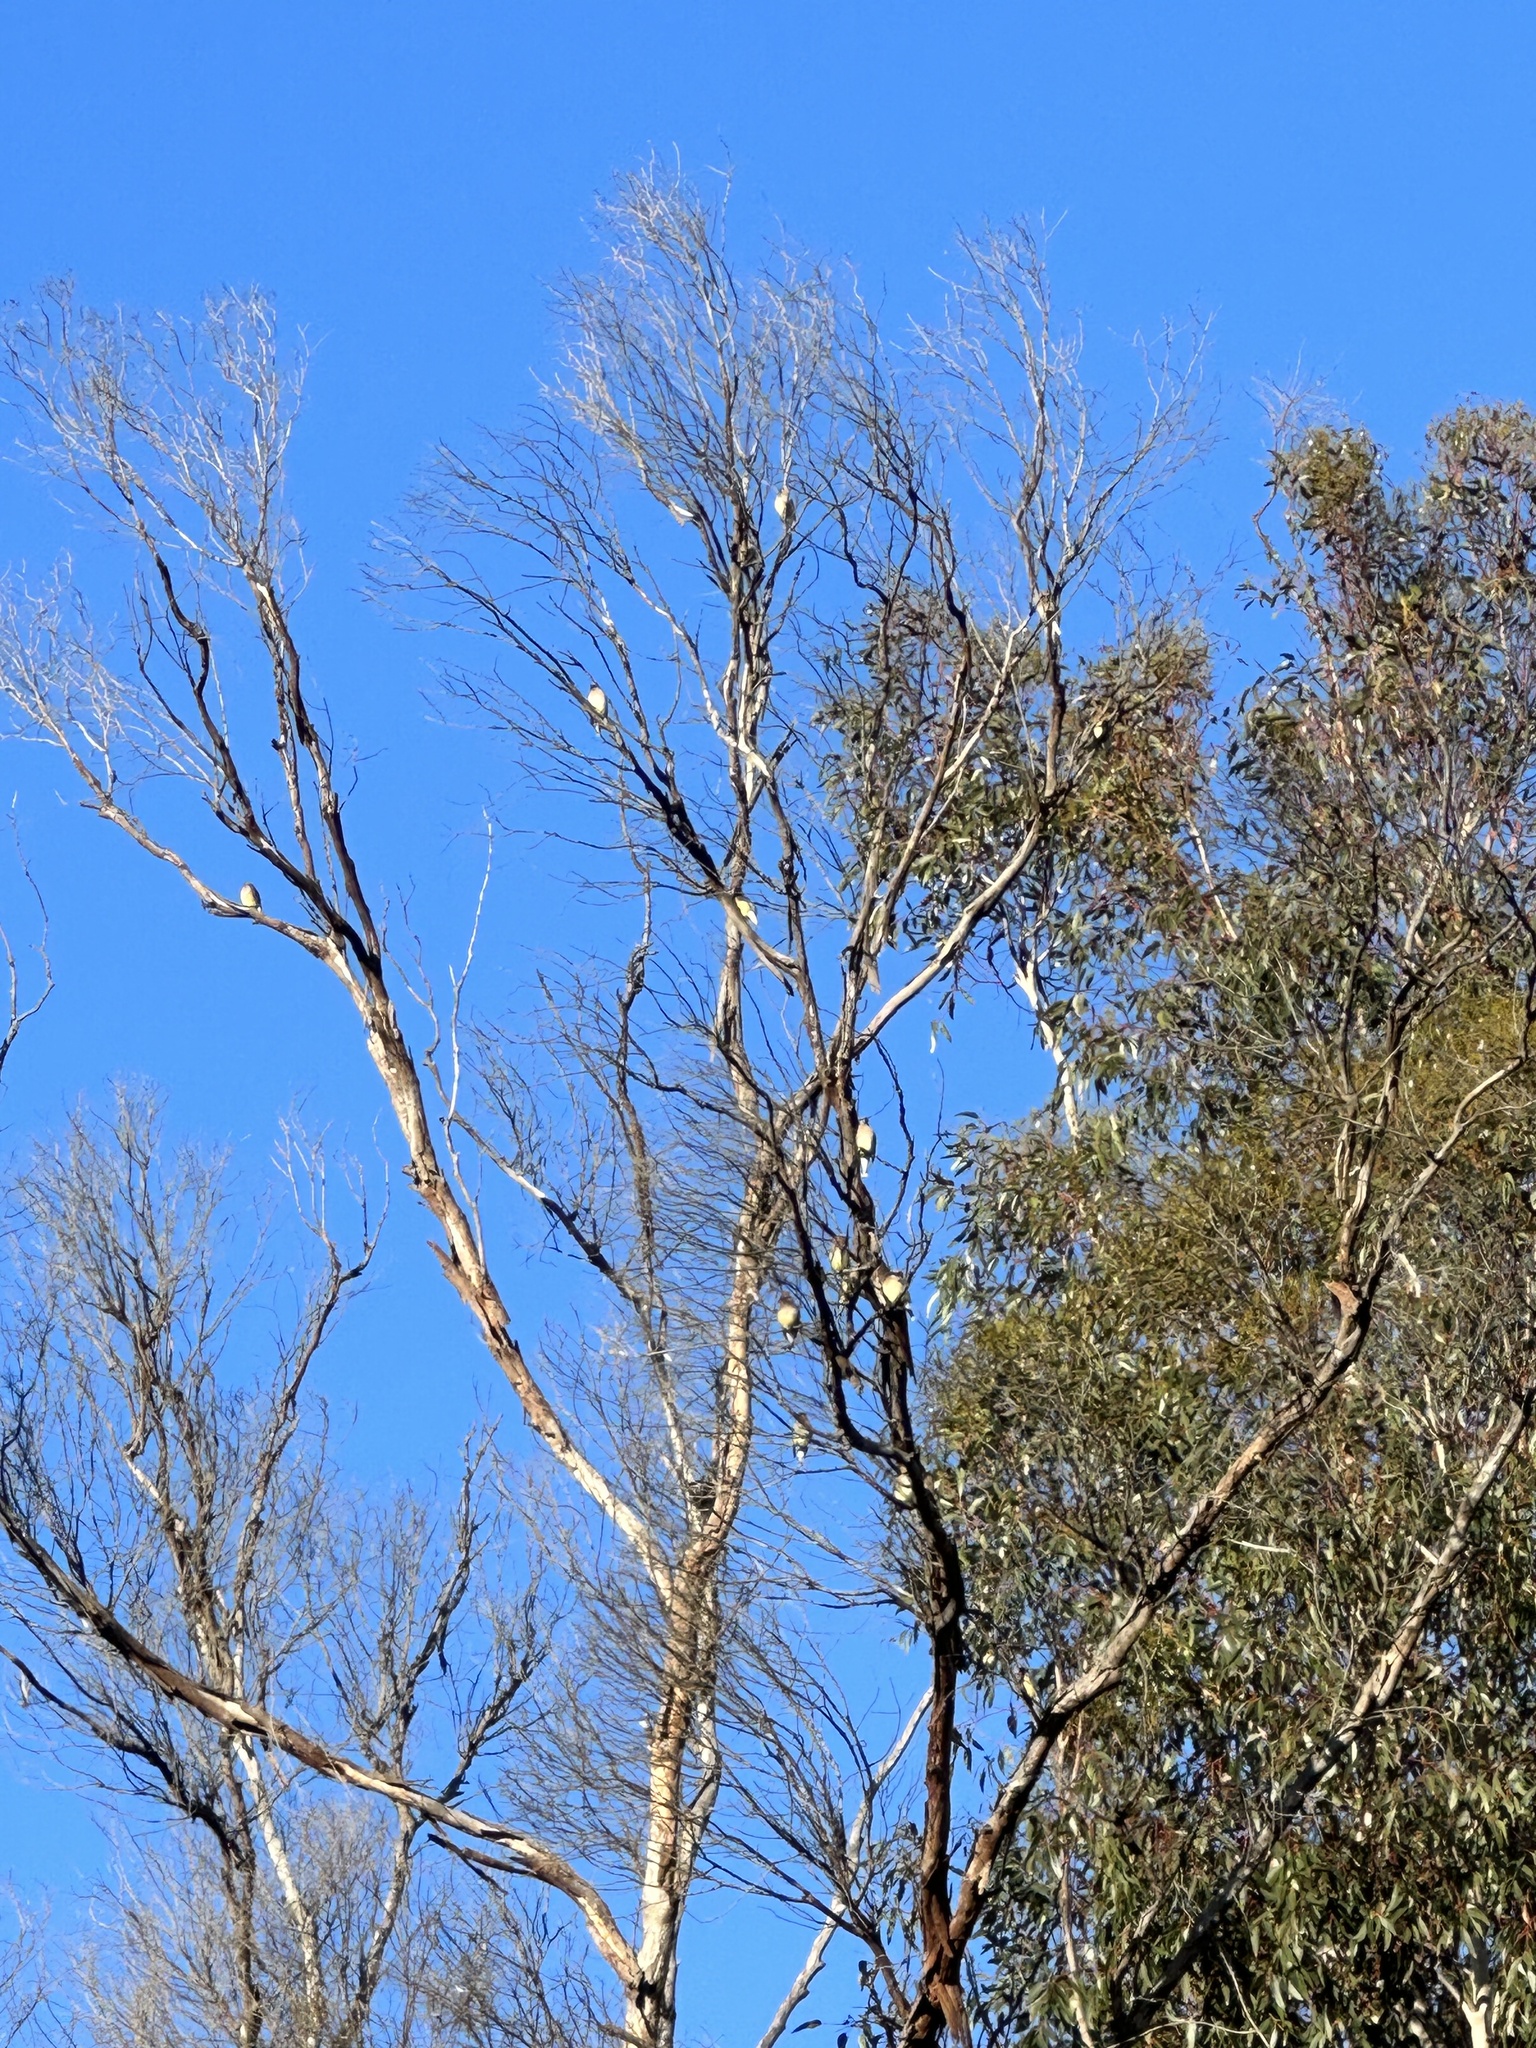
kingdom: Animalia
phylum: Chordata
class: Aves
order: Passeriformes
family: Bombycillidae
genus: Bombycilla
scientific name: Bombycilla cedrorum
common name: Cedar waxwing
